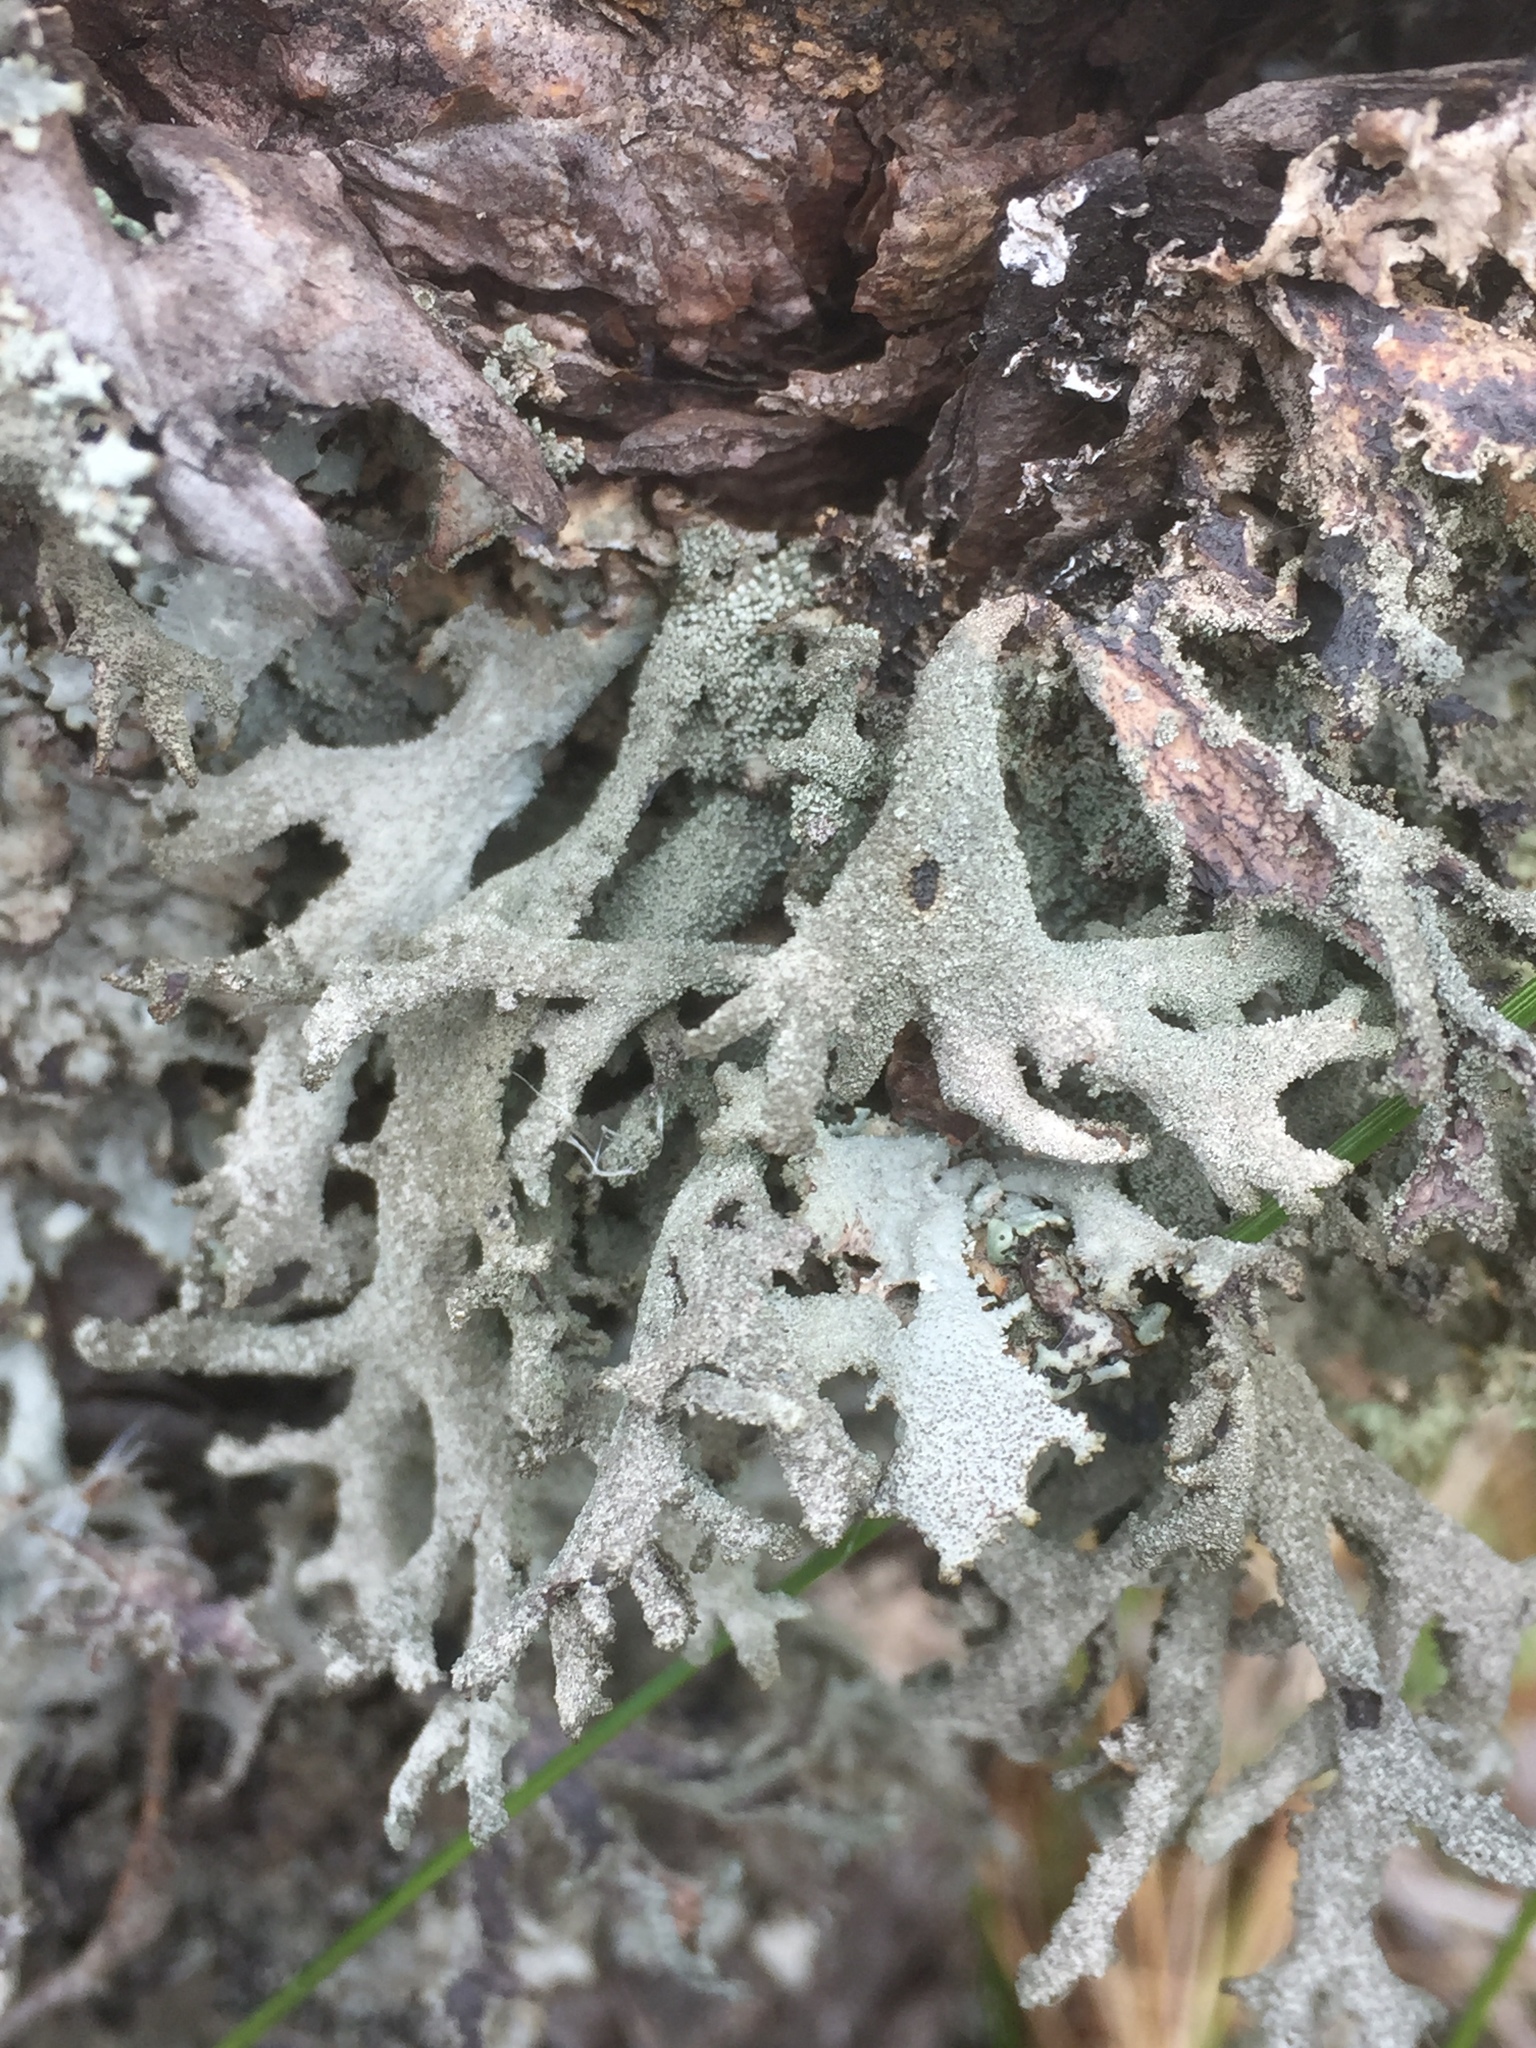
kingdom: Fungi
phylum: Ascomycota
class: Lecanoromycetes
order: Lecanorales
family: Parmeliaceae
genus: Pseudevernia
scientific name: Pseudevernia furfuracea
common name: Tree moss
